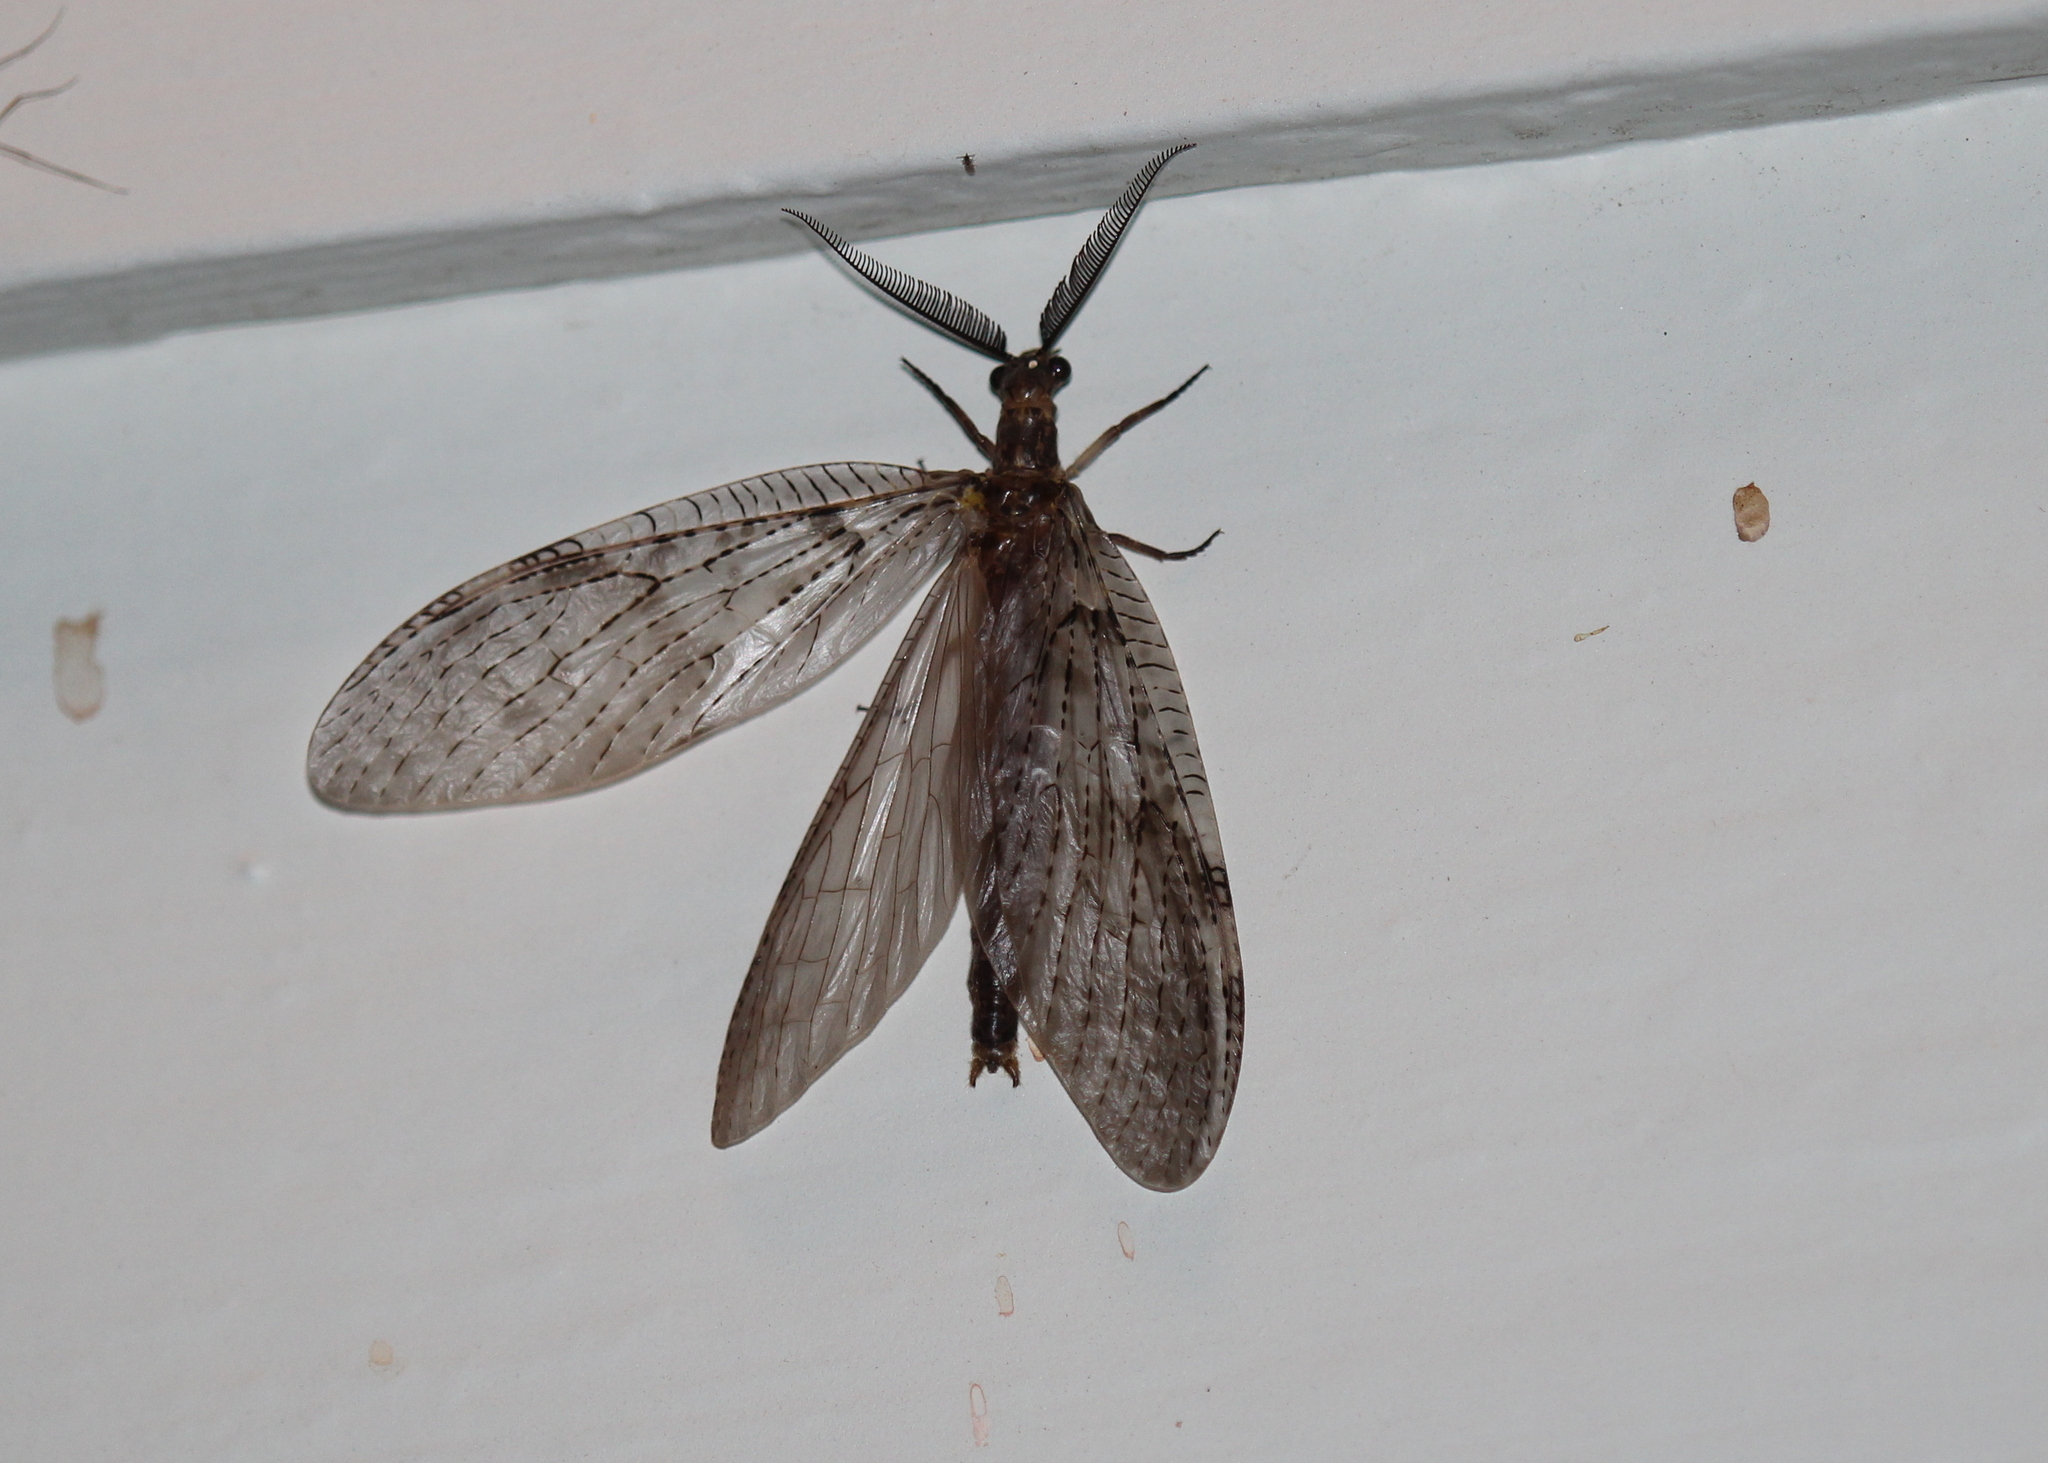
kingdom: Animalia
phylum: Arthropoda
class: Insecta
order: Megaloptera
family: Corydalidae
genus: Chauliodes
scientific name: Chauliodes pectinicornis
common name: Summer fishfly
